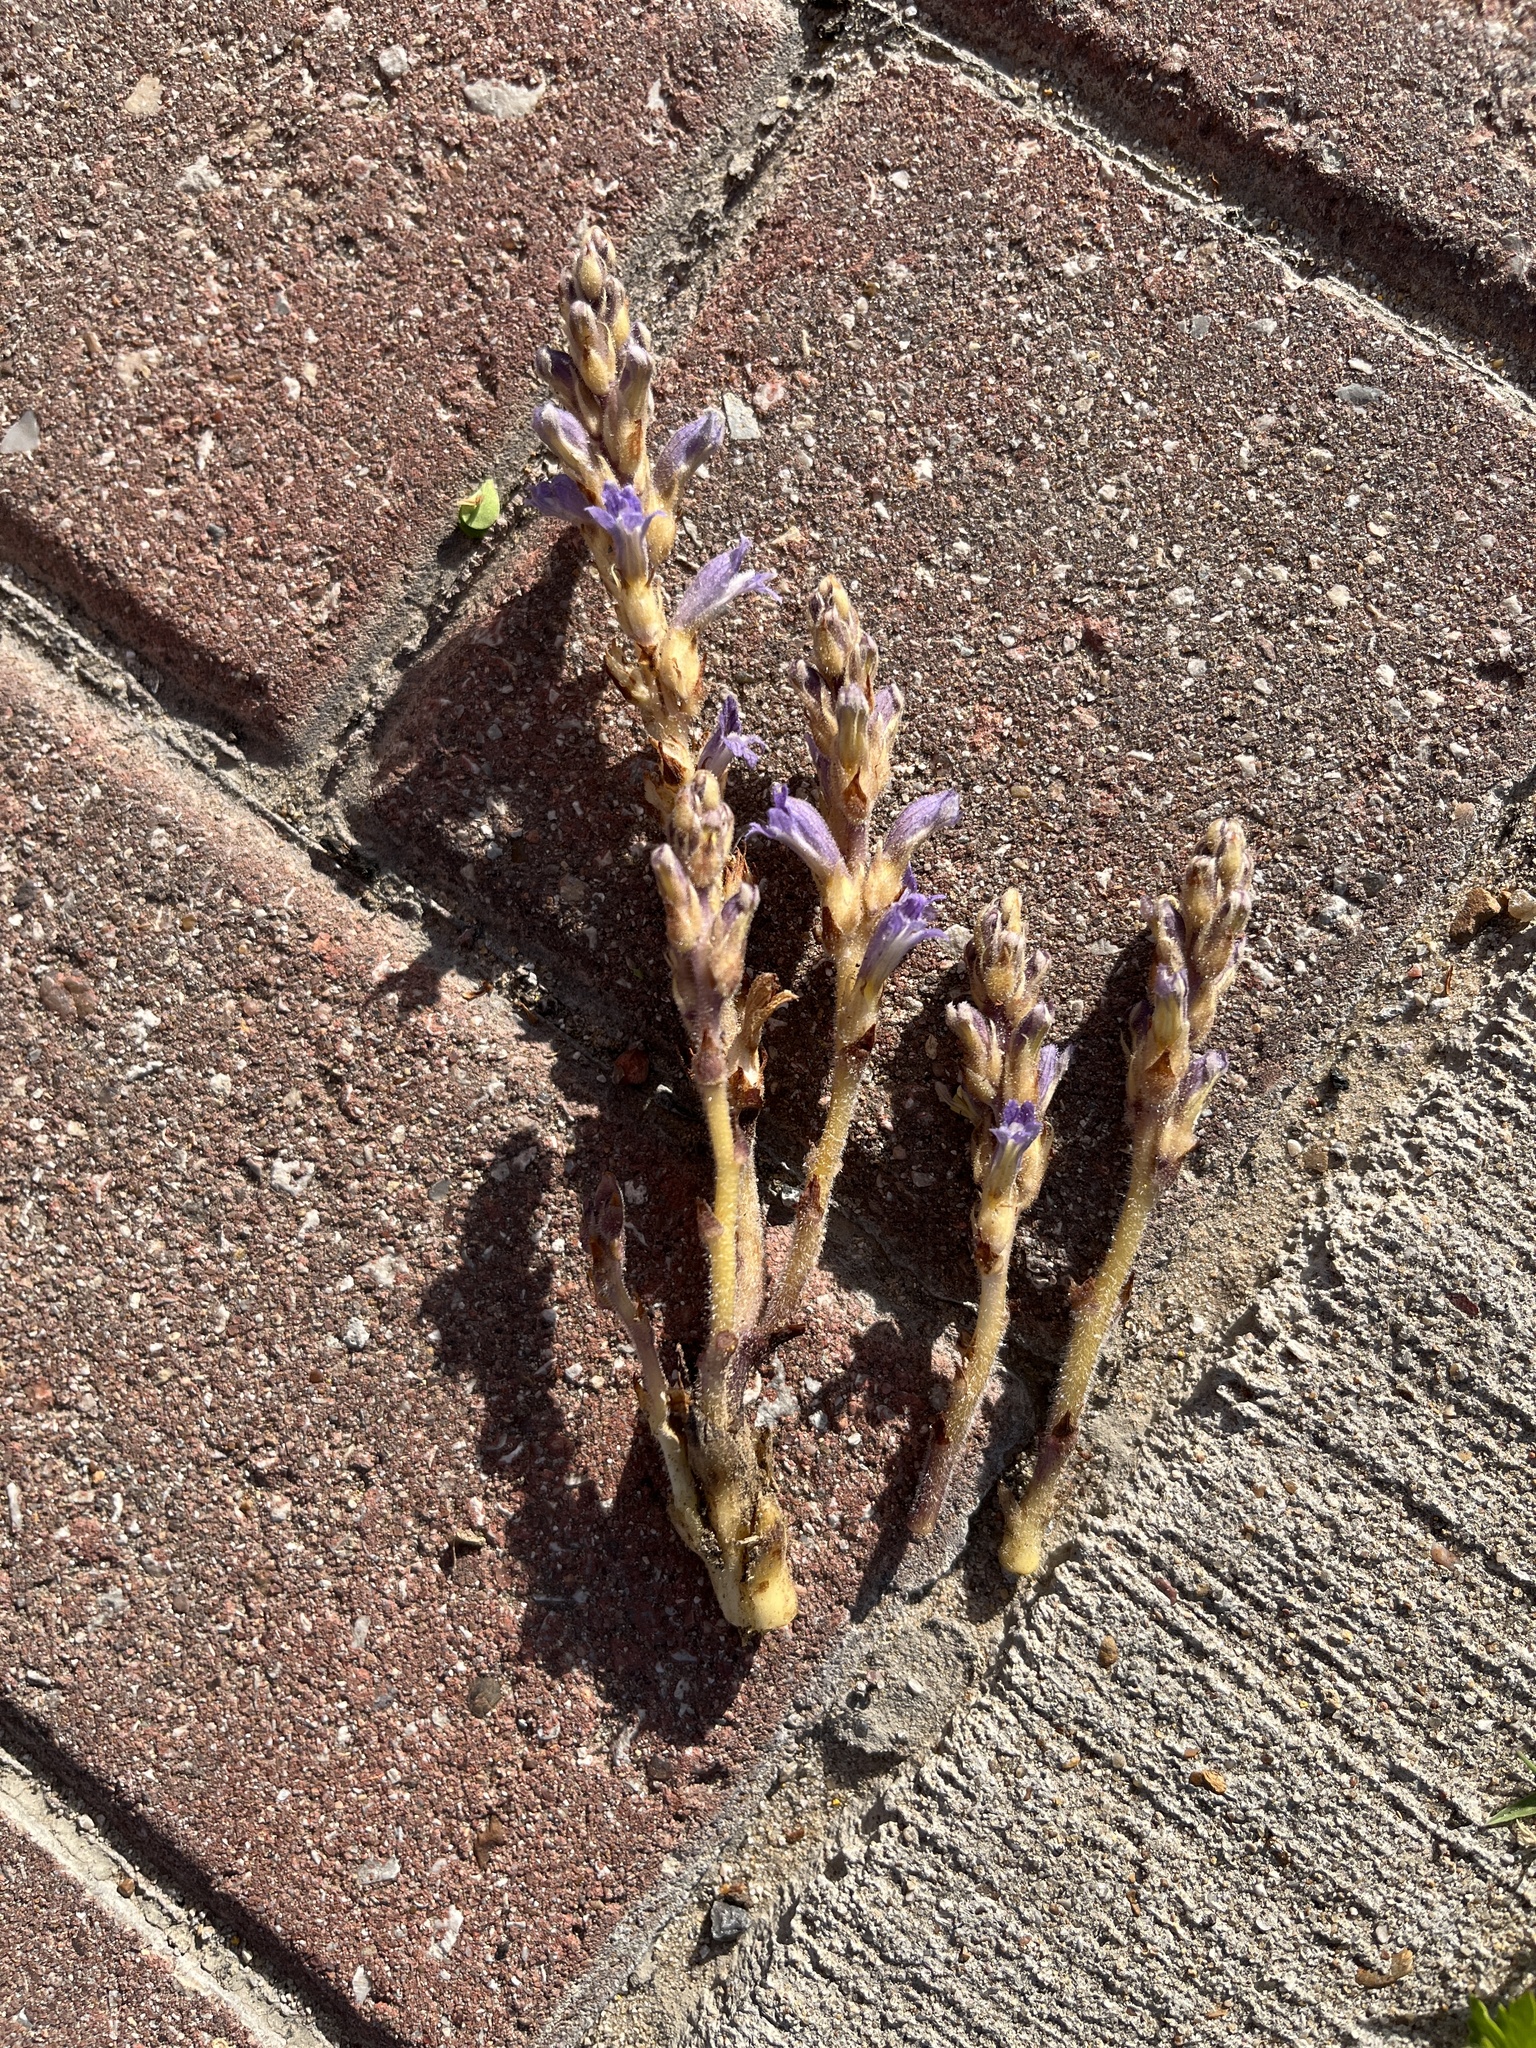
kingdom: Plantae
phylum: Tracheophyta
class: Magnoliopsida
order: Lamiales
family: Orobanchaceae
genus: Phelipanche
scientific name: Phelipanche mutelii
